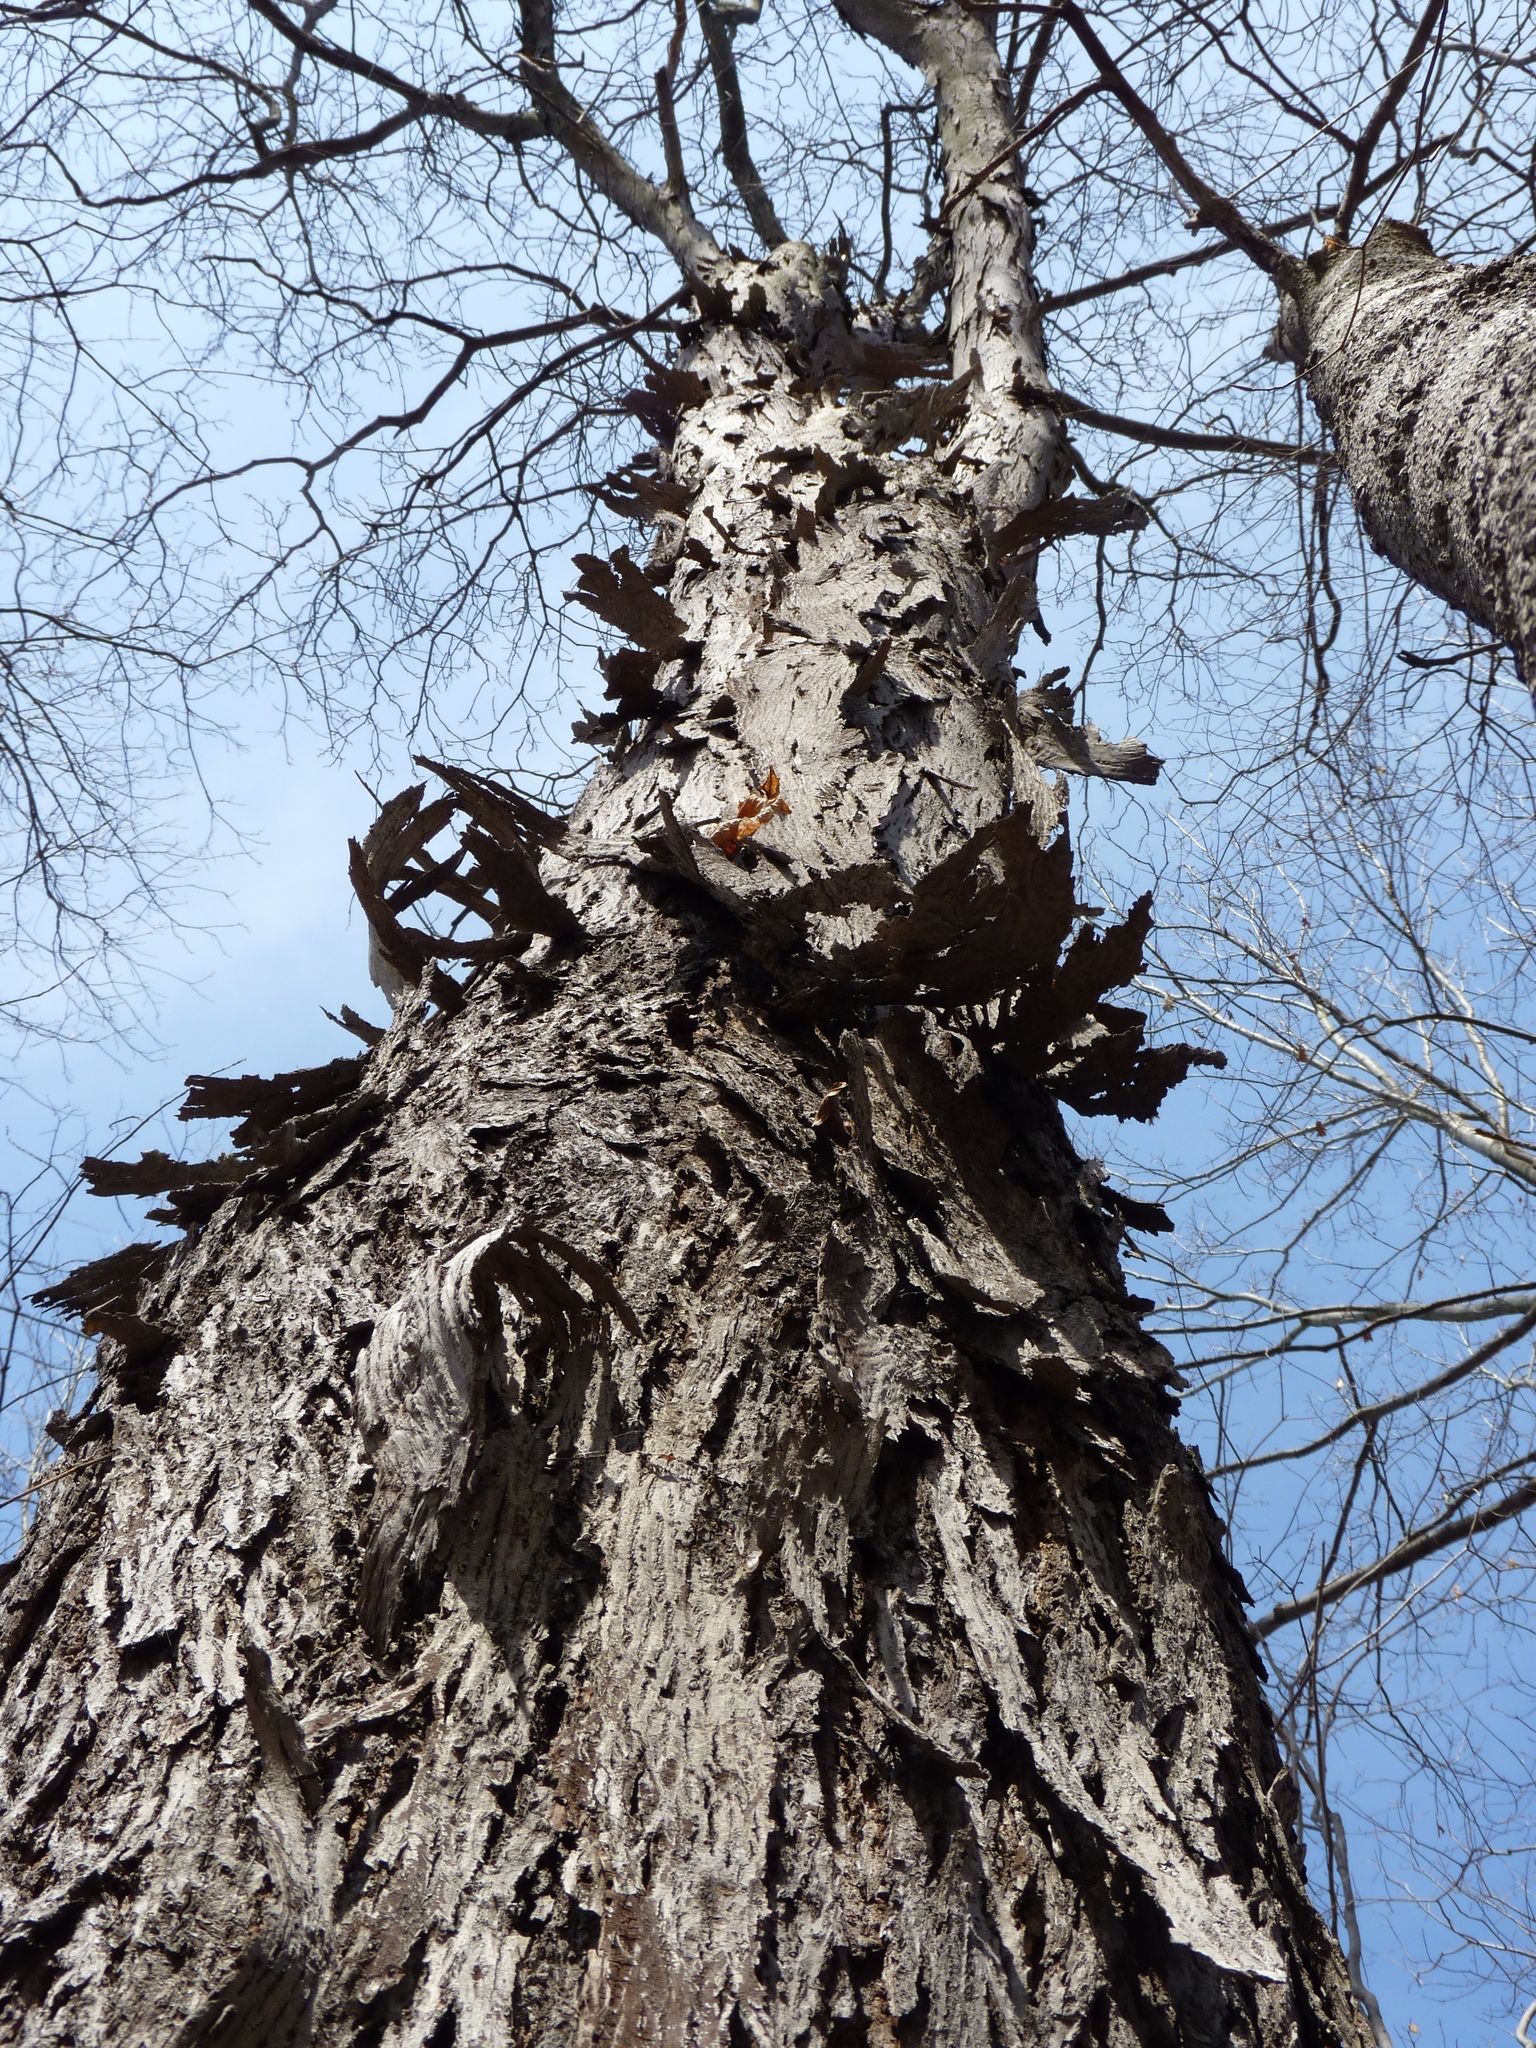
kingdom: Plantae
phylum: Tracheophyta
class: Magnoliopsida
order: Fagales
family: Juglandaceae
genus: Carya
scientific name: Carya ovata
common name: Shagbark hickory
